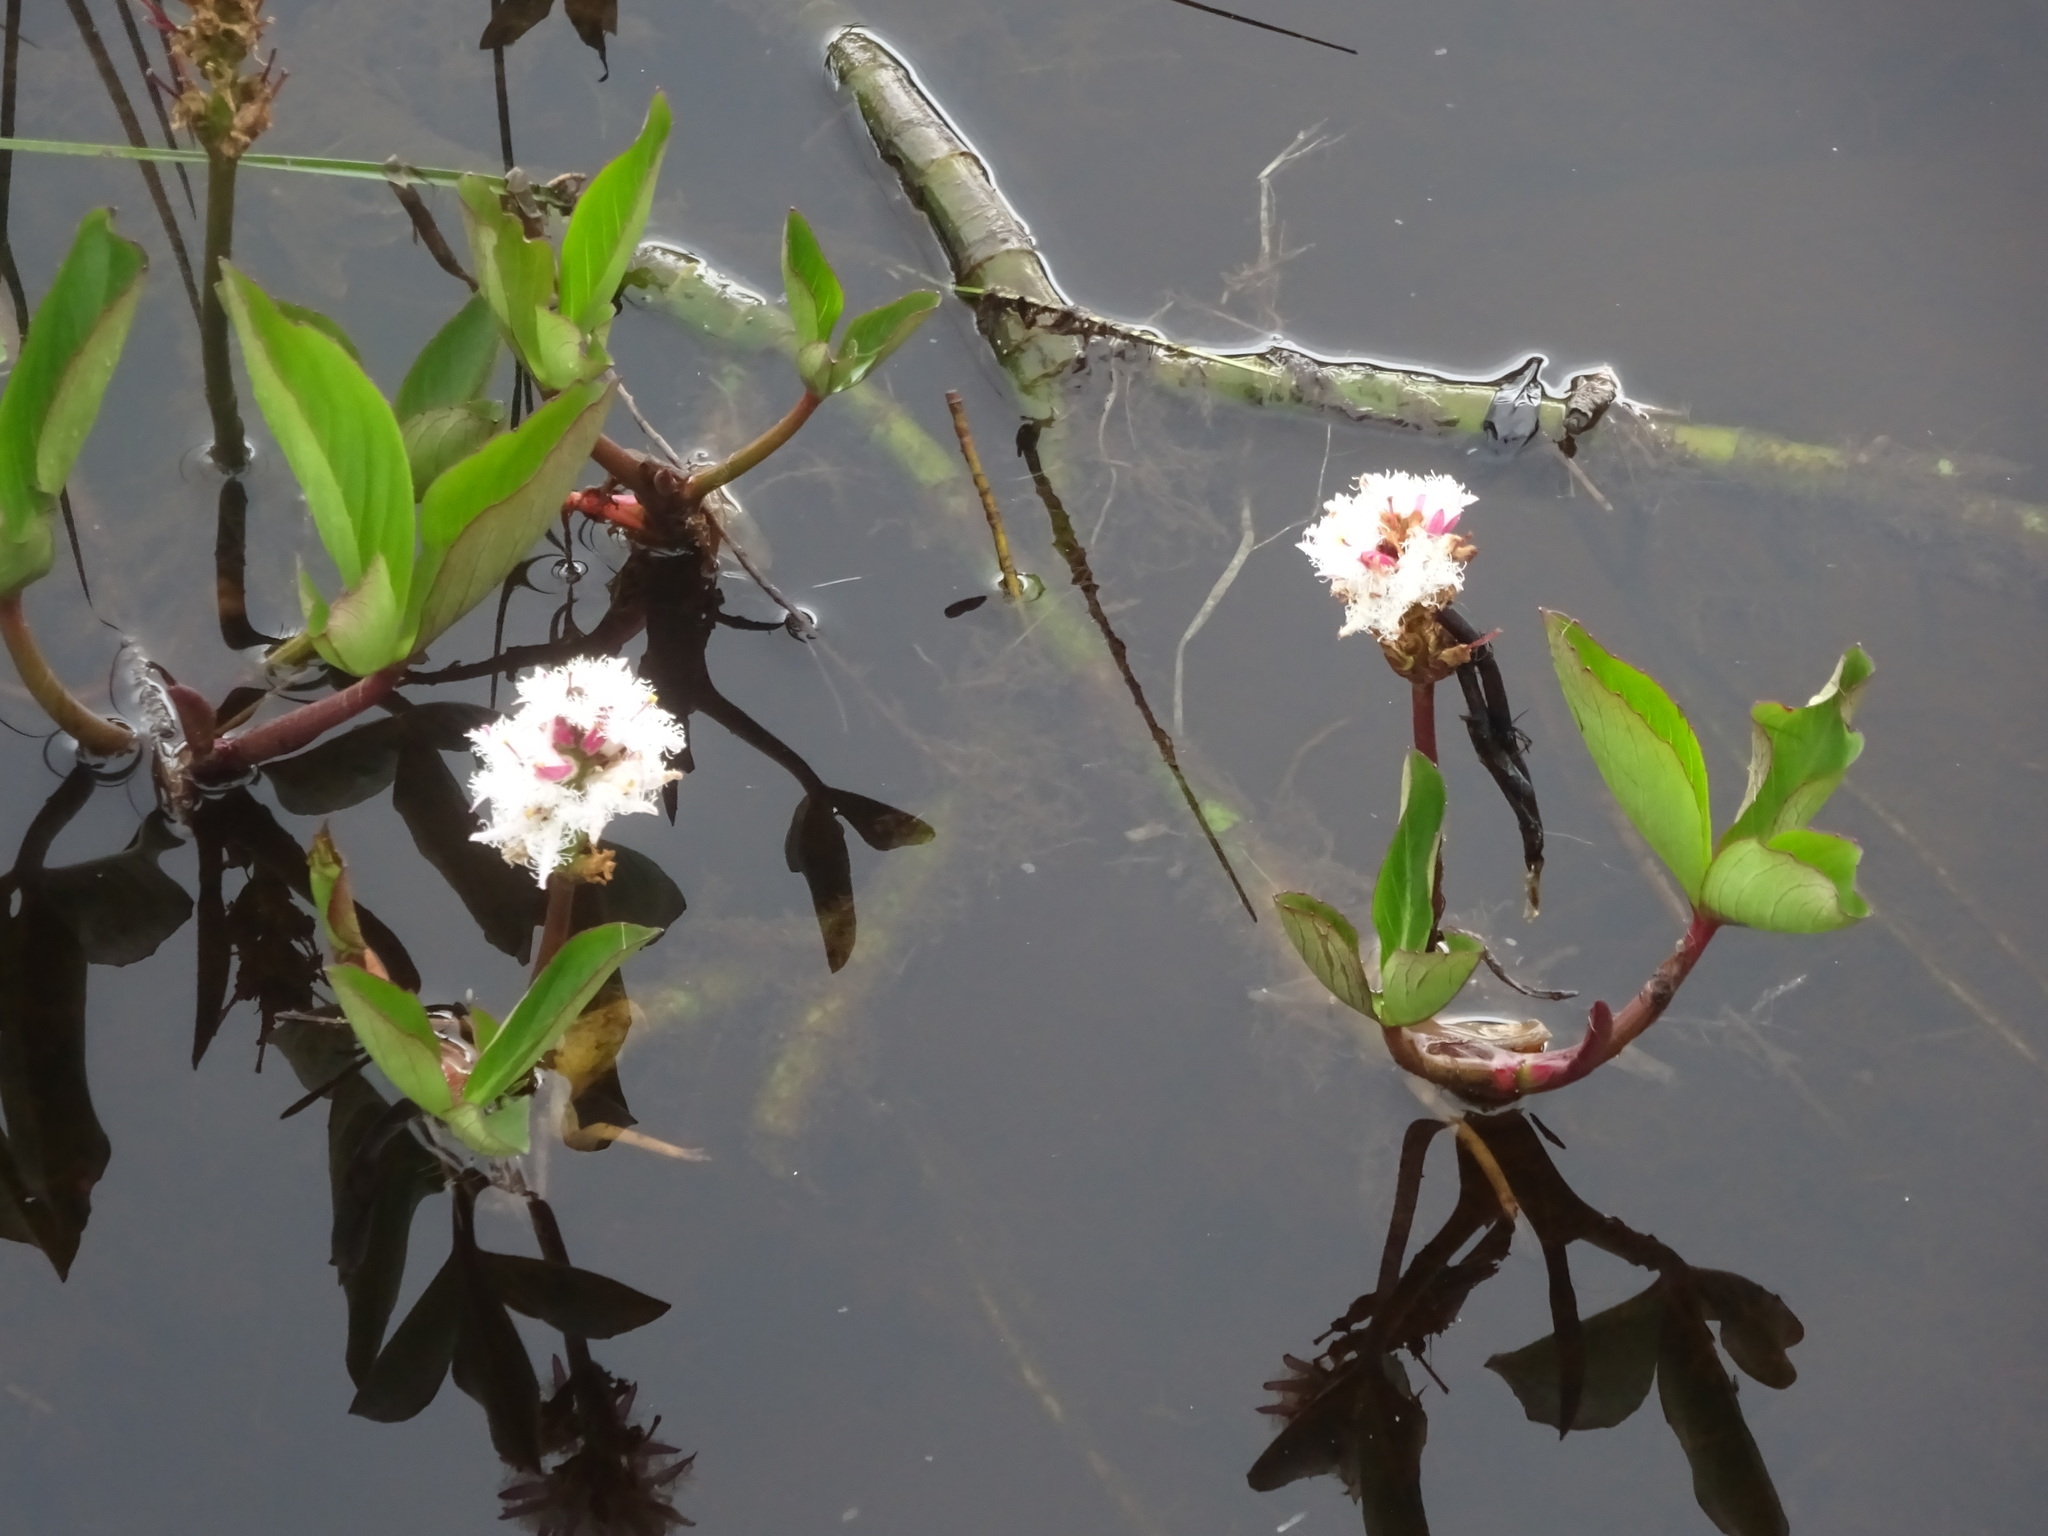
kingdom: Plantae
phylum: Tracheophyta
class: Magnoliopsida
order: Asterales
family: Menyanthaceae
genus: Menyanthes
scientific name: Menyanthes trifoliata
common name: Bogbean
